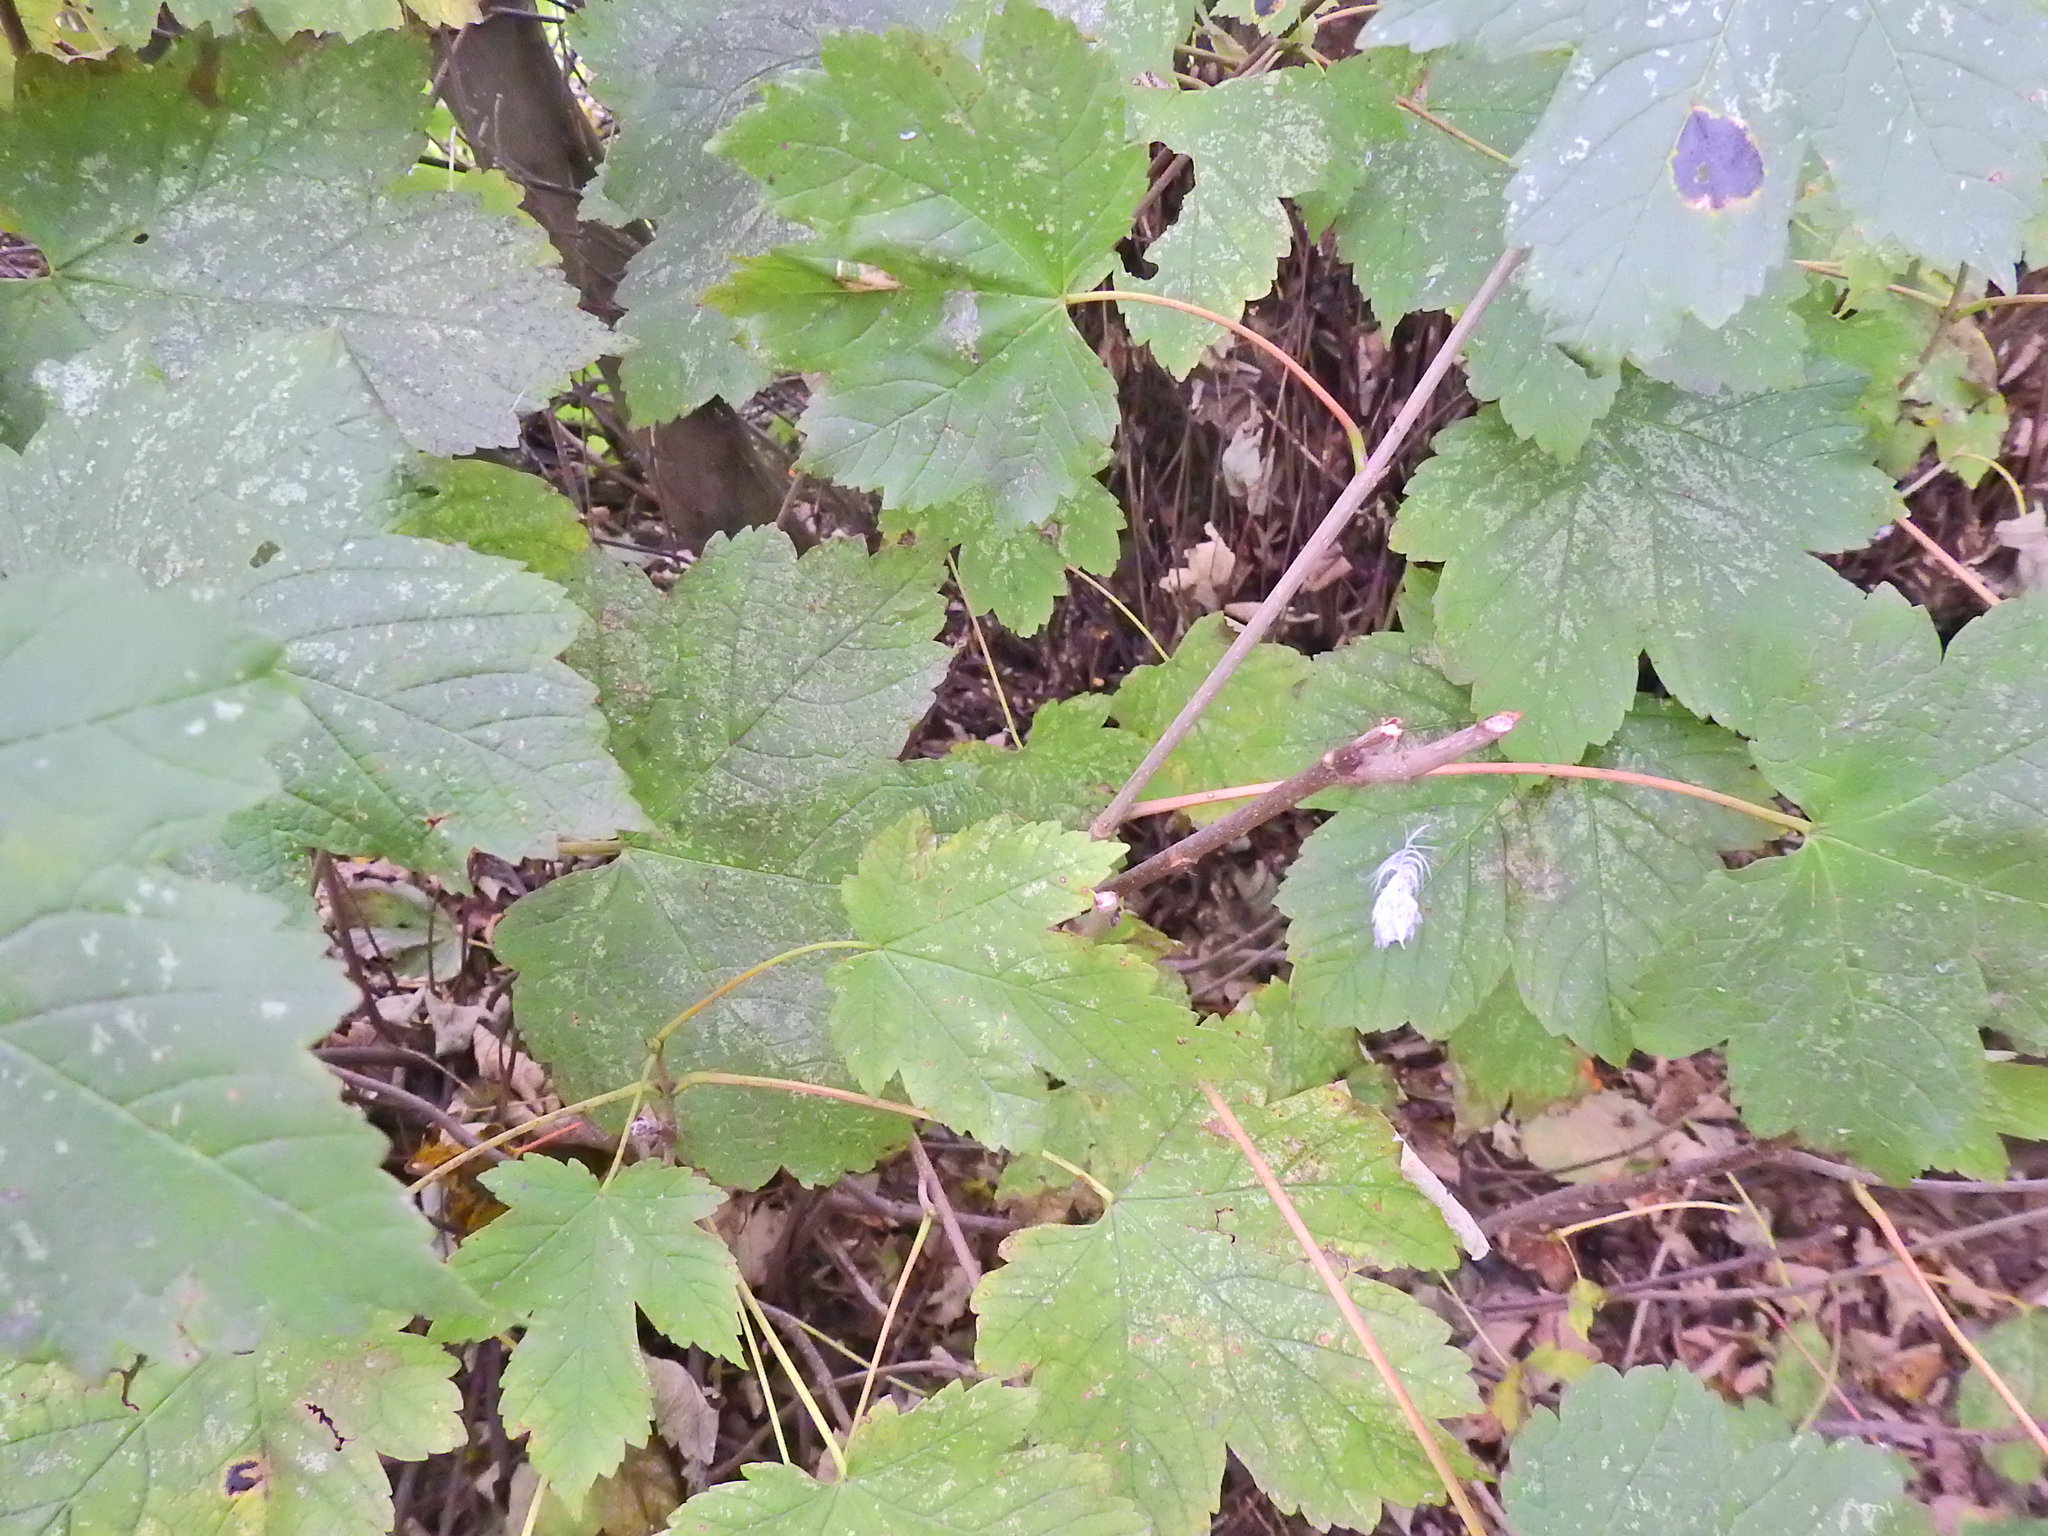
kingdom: Plantae
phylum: Tracheophyta
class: Magnoliopsida
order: Sapindales
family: Sapindaceae
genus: Acer
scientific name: Acer pseudoplatanus
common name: Sycamore
